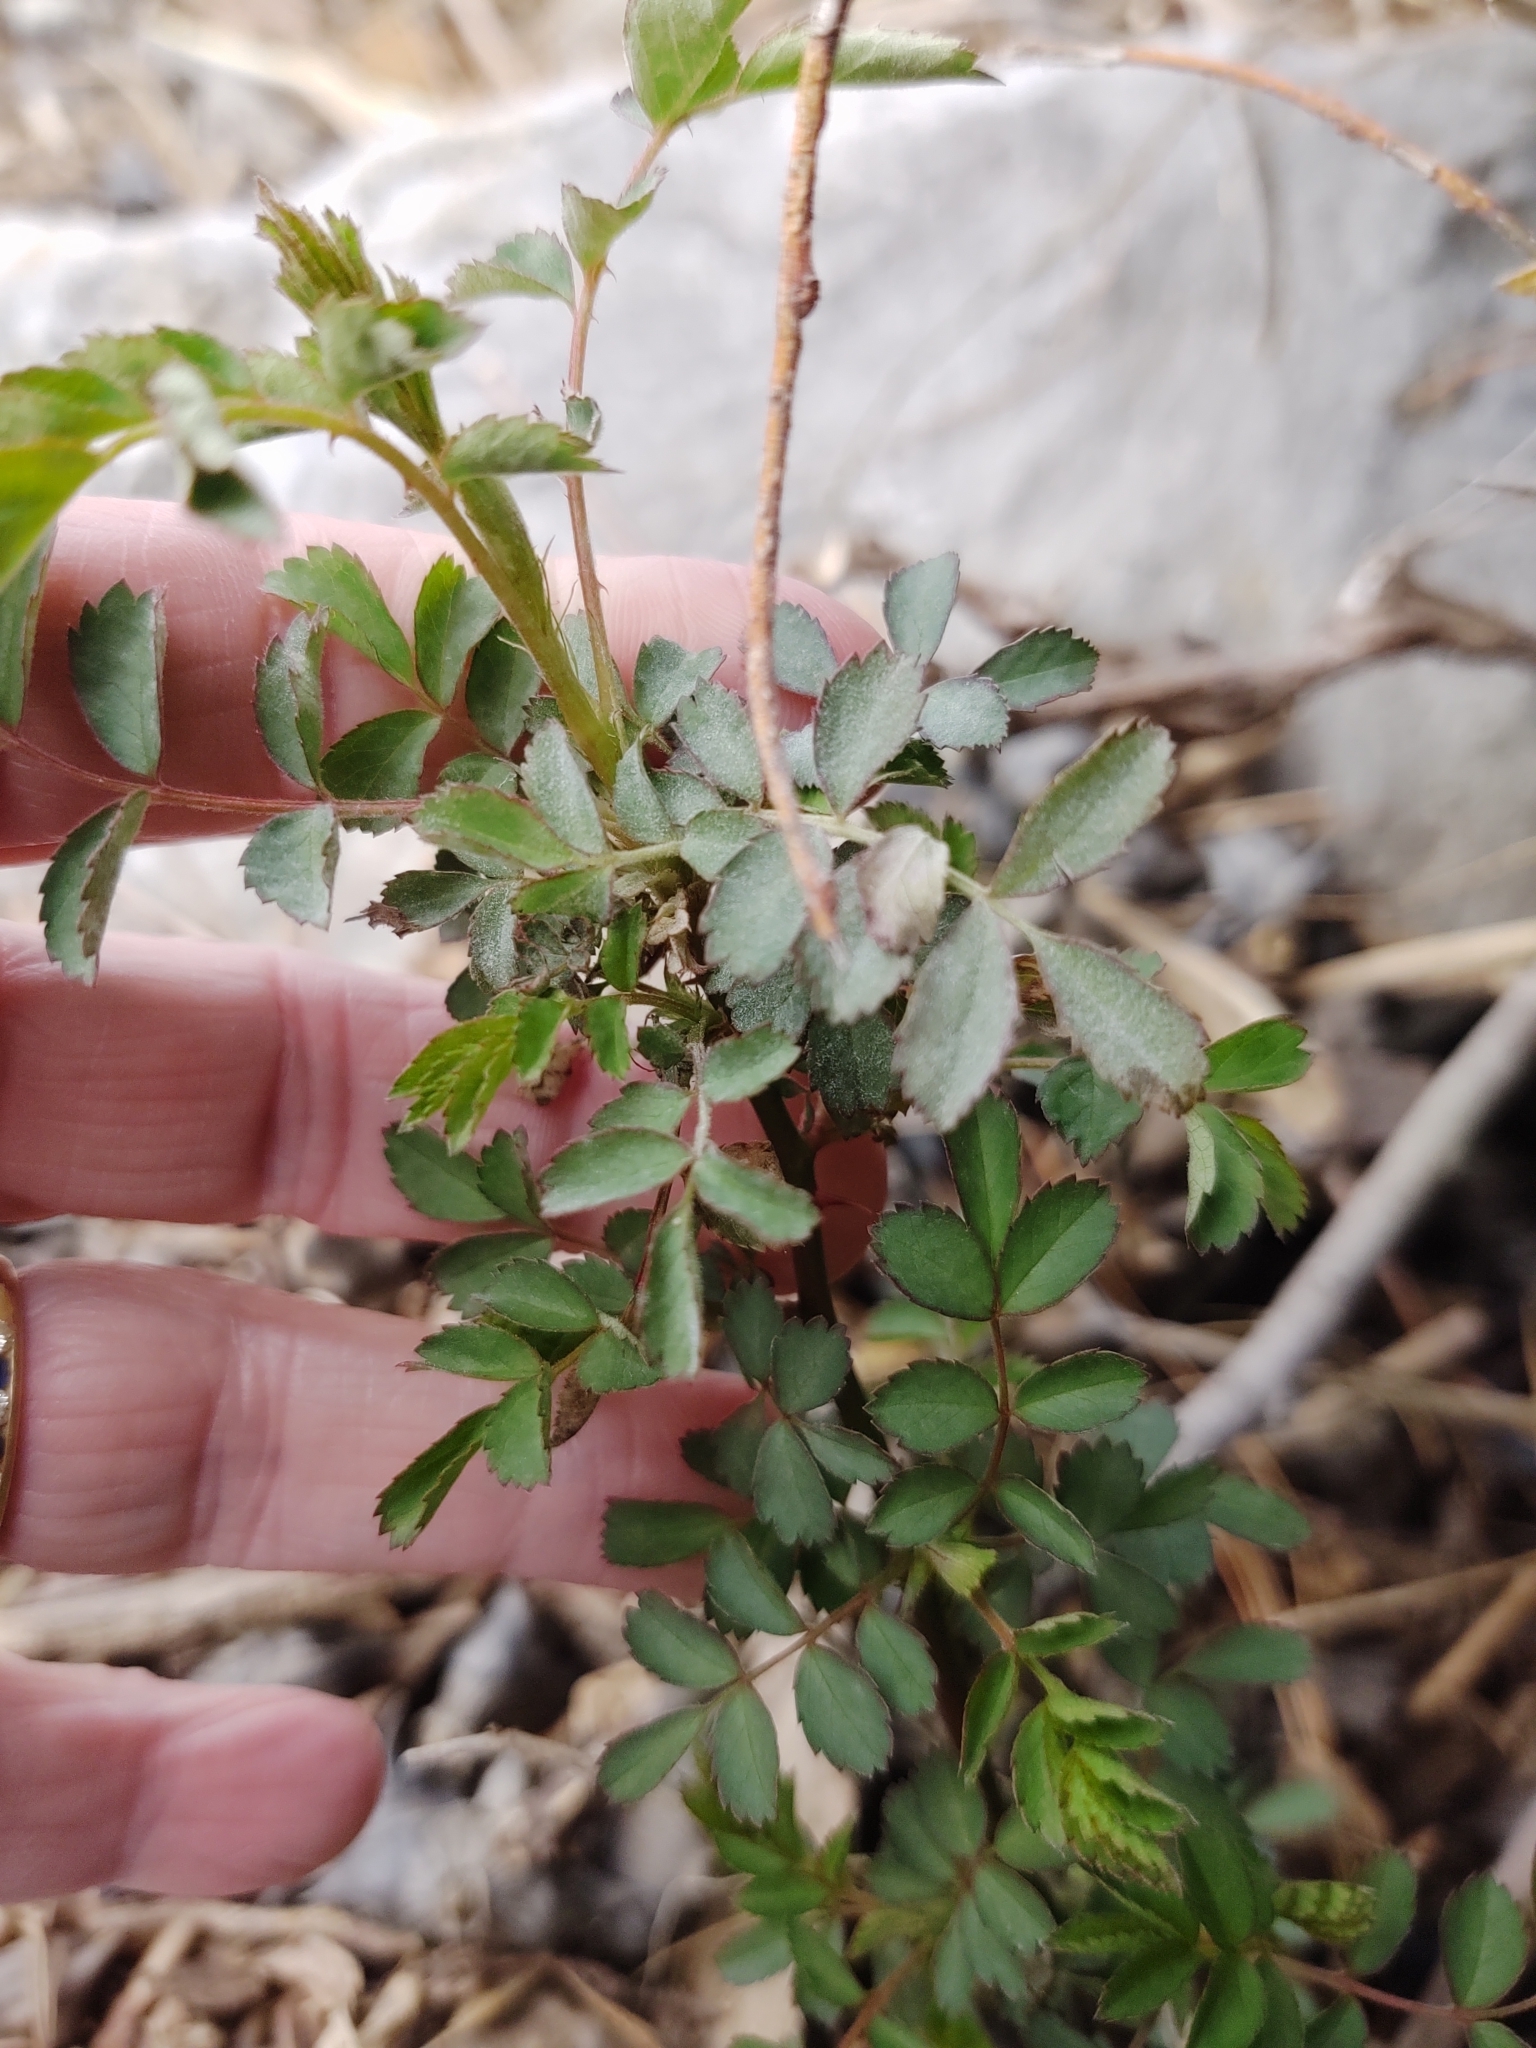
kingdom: Plantae
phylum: Tracheophyta
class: Magnoliopsida
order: Rosales
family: Rosaceae
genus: Rosa
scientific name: Rosa multiflora
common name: Multiflora rose
